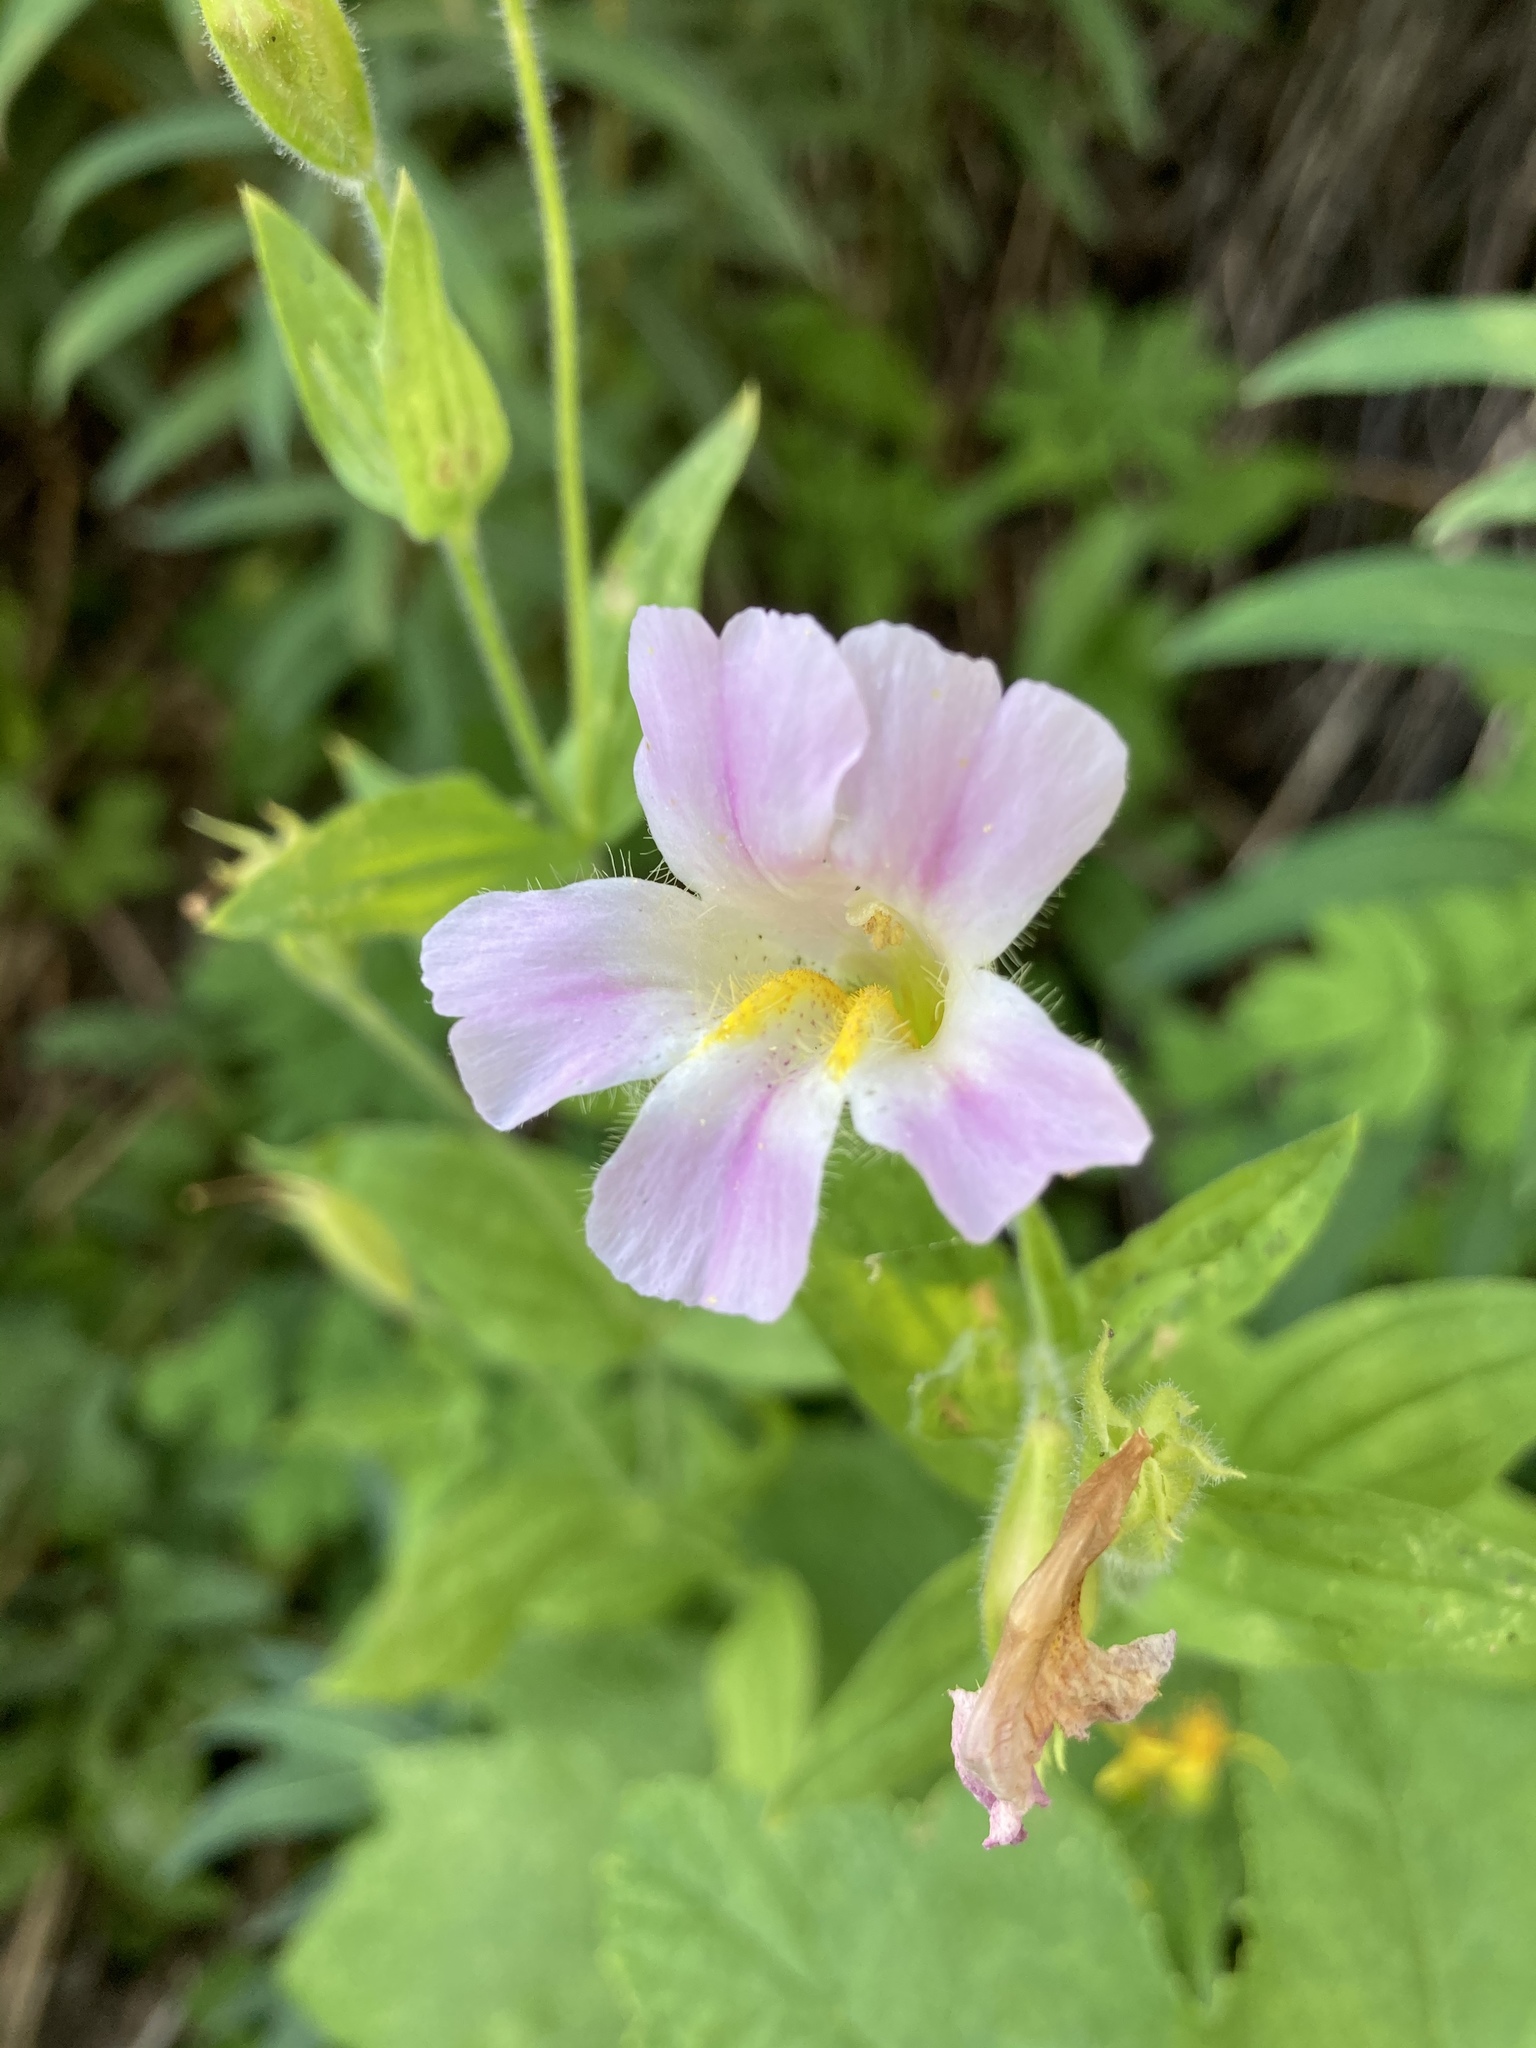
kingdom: Plantae
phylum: Tracheophyta
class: Magnoliopsida
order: Lamiales
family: Phrymaceae
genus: Erythranthe
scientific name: Erythranthe erubescens
